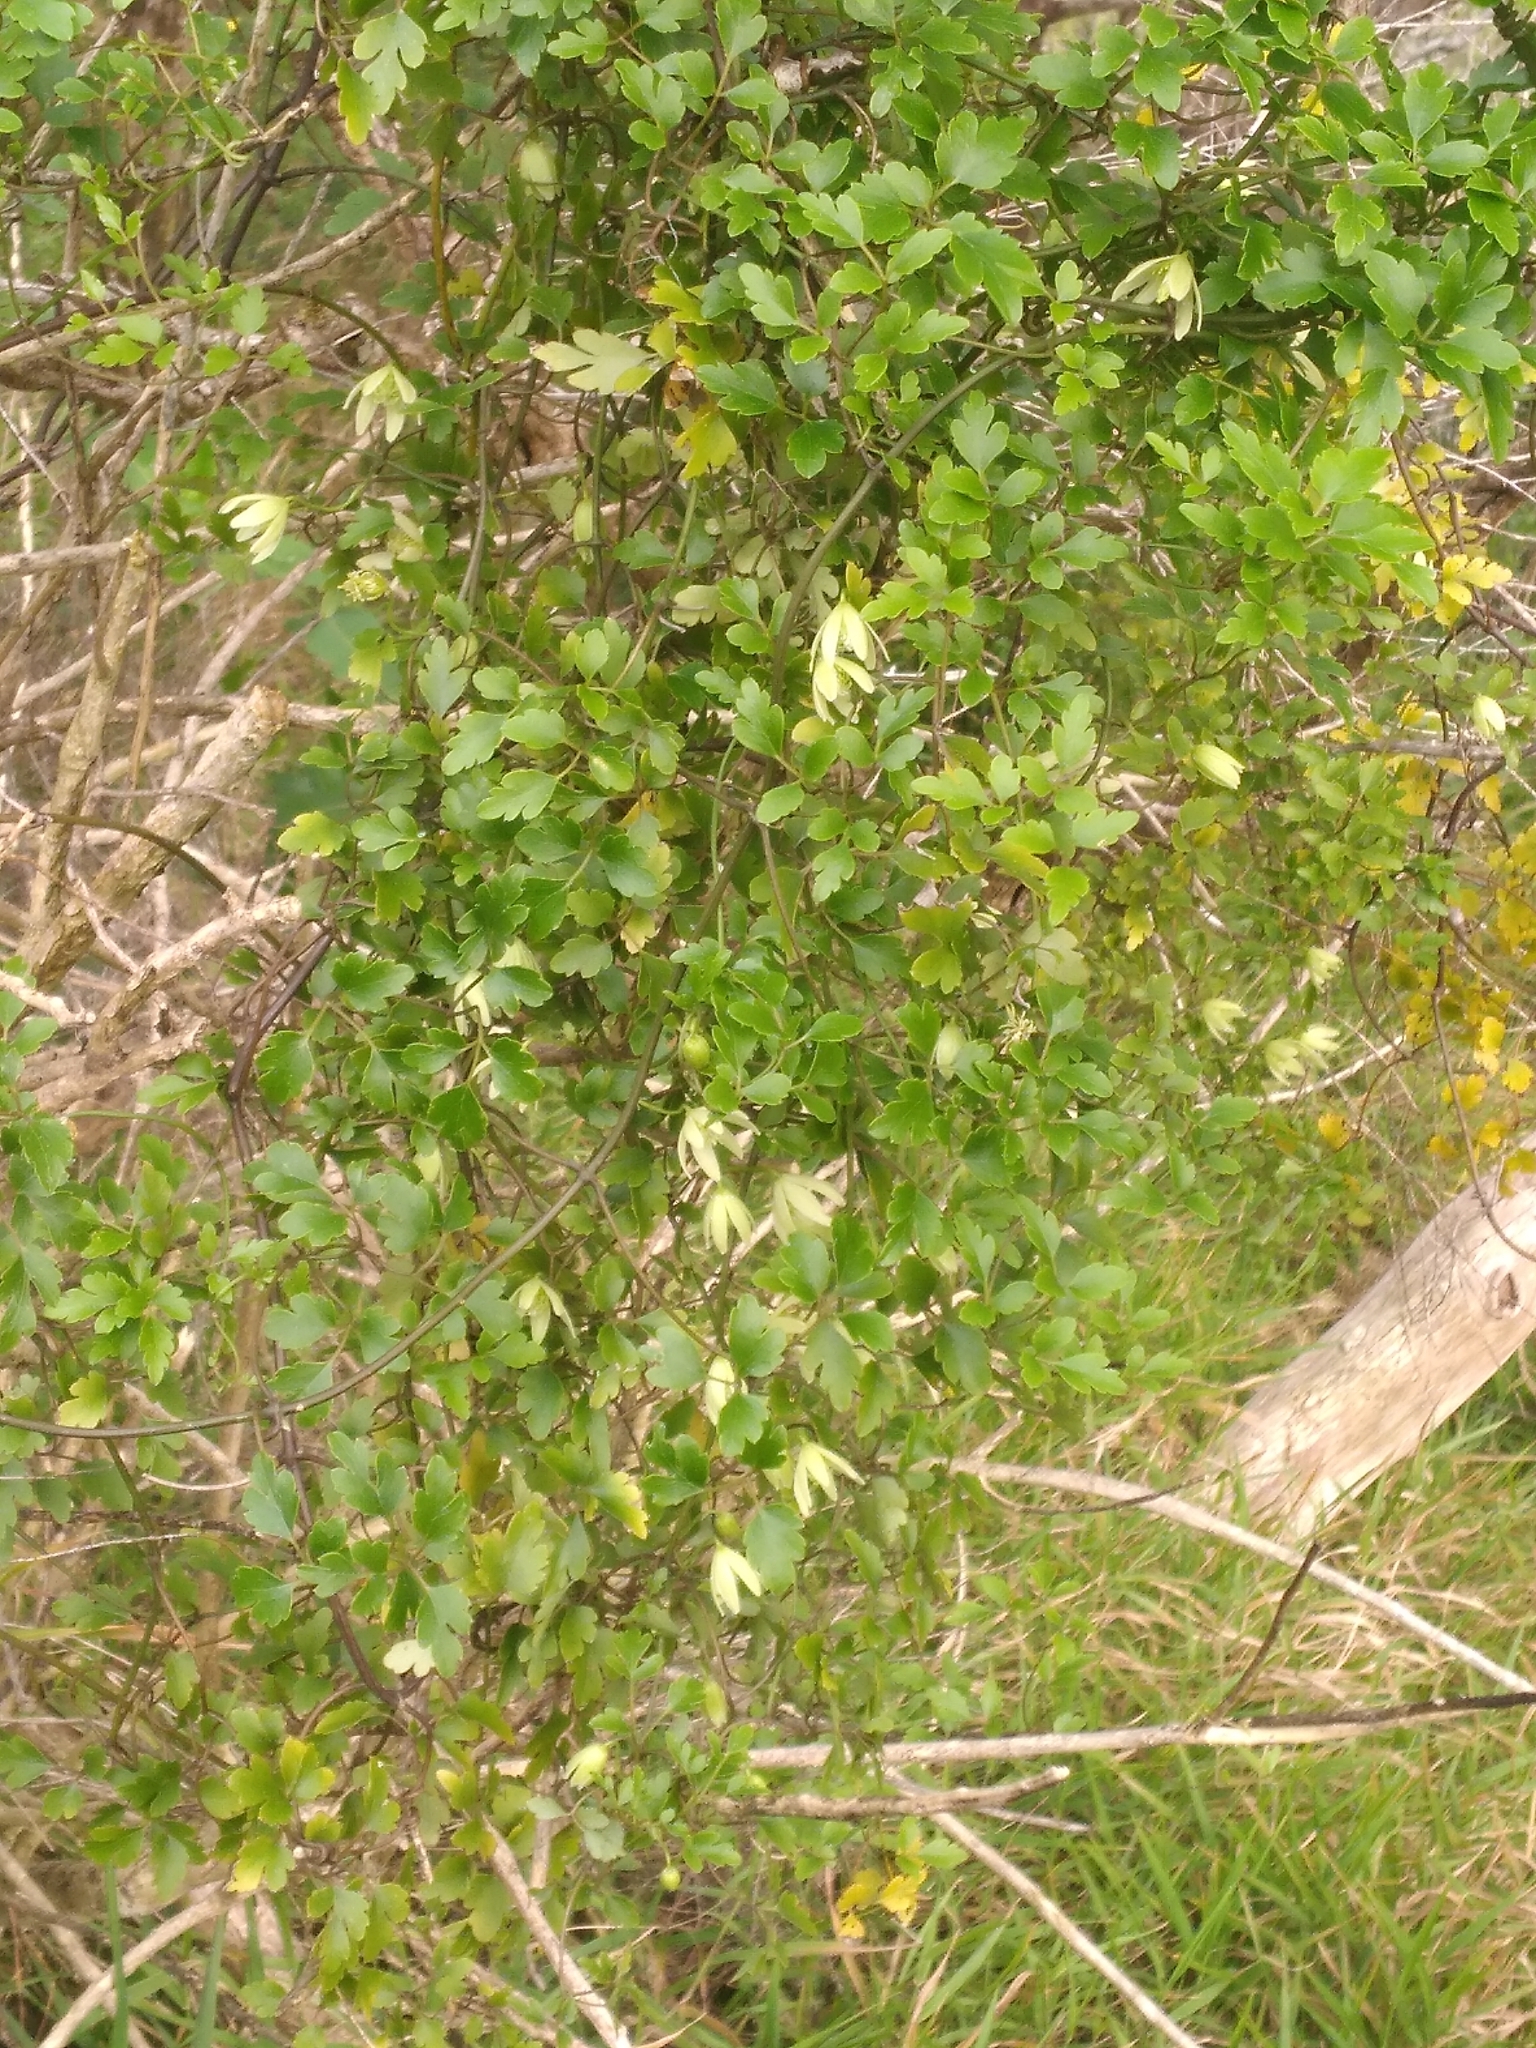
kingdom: Plantae
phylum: Tracheophyta
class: Magnoliopsida
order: Ranunculales
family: Ranunculaceae
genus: Clematis
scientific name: Clematis forsteri
